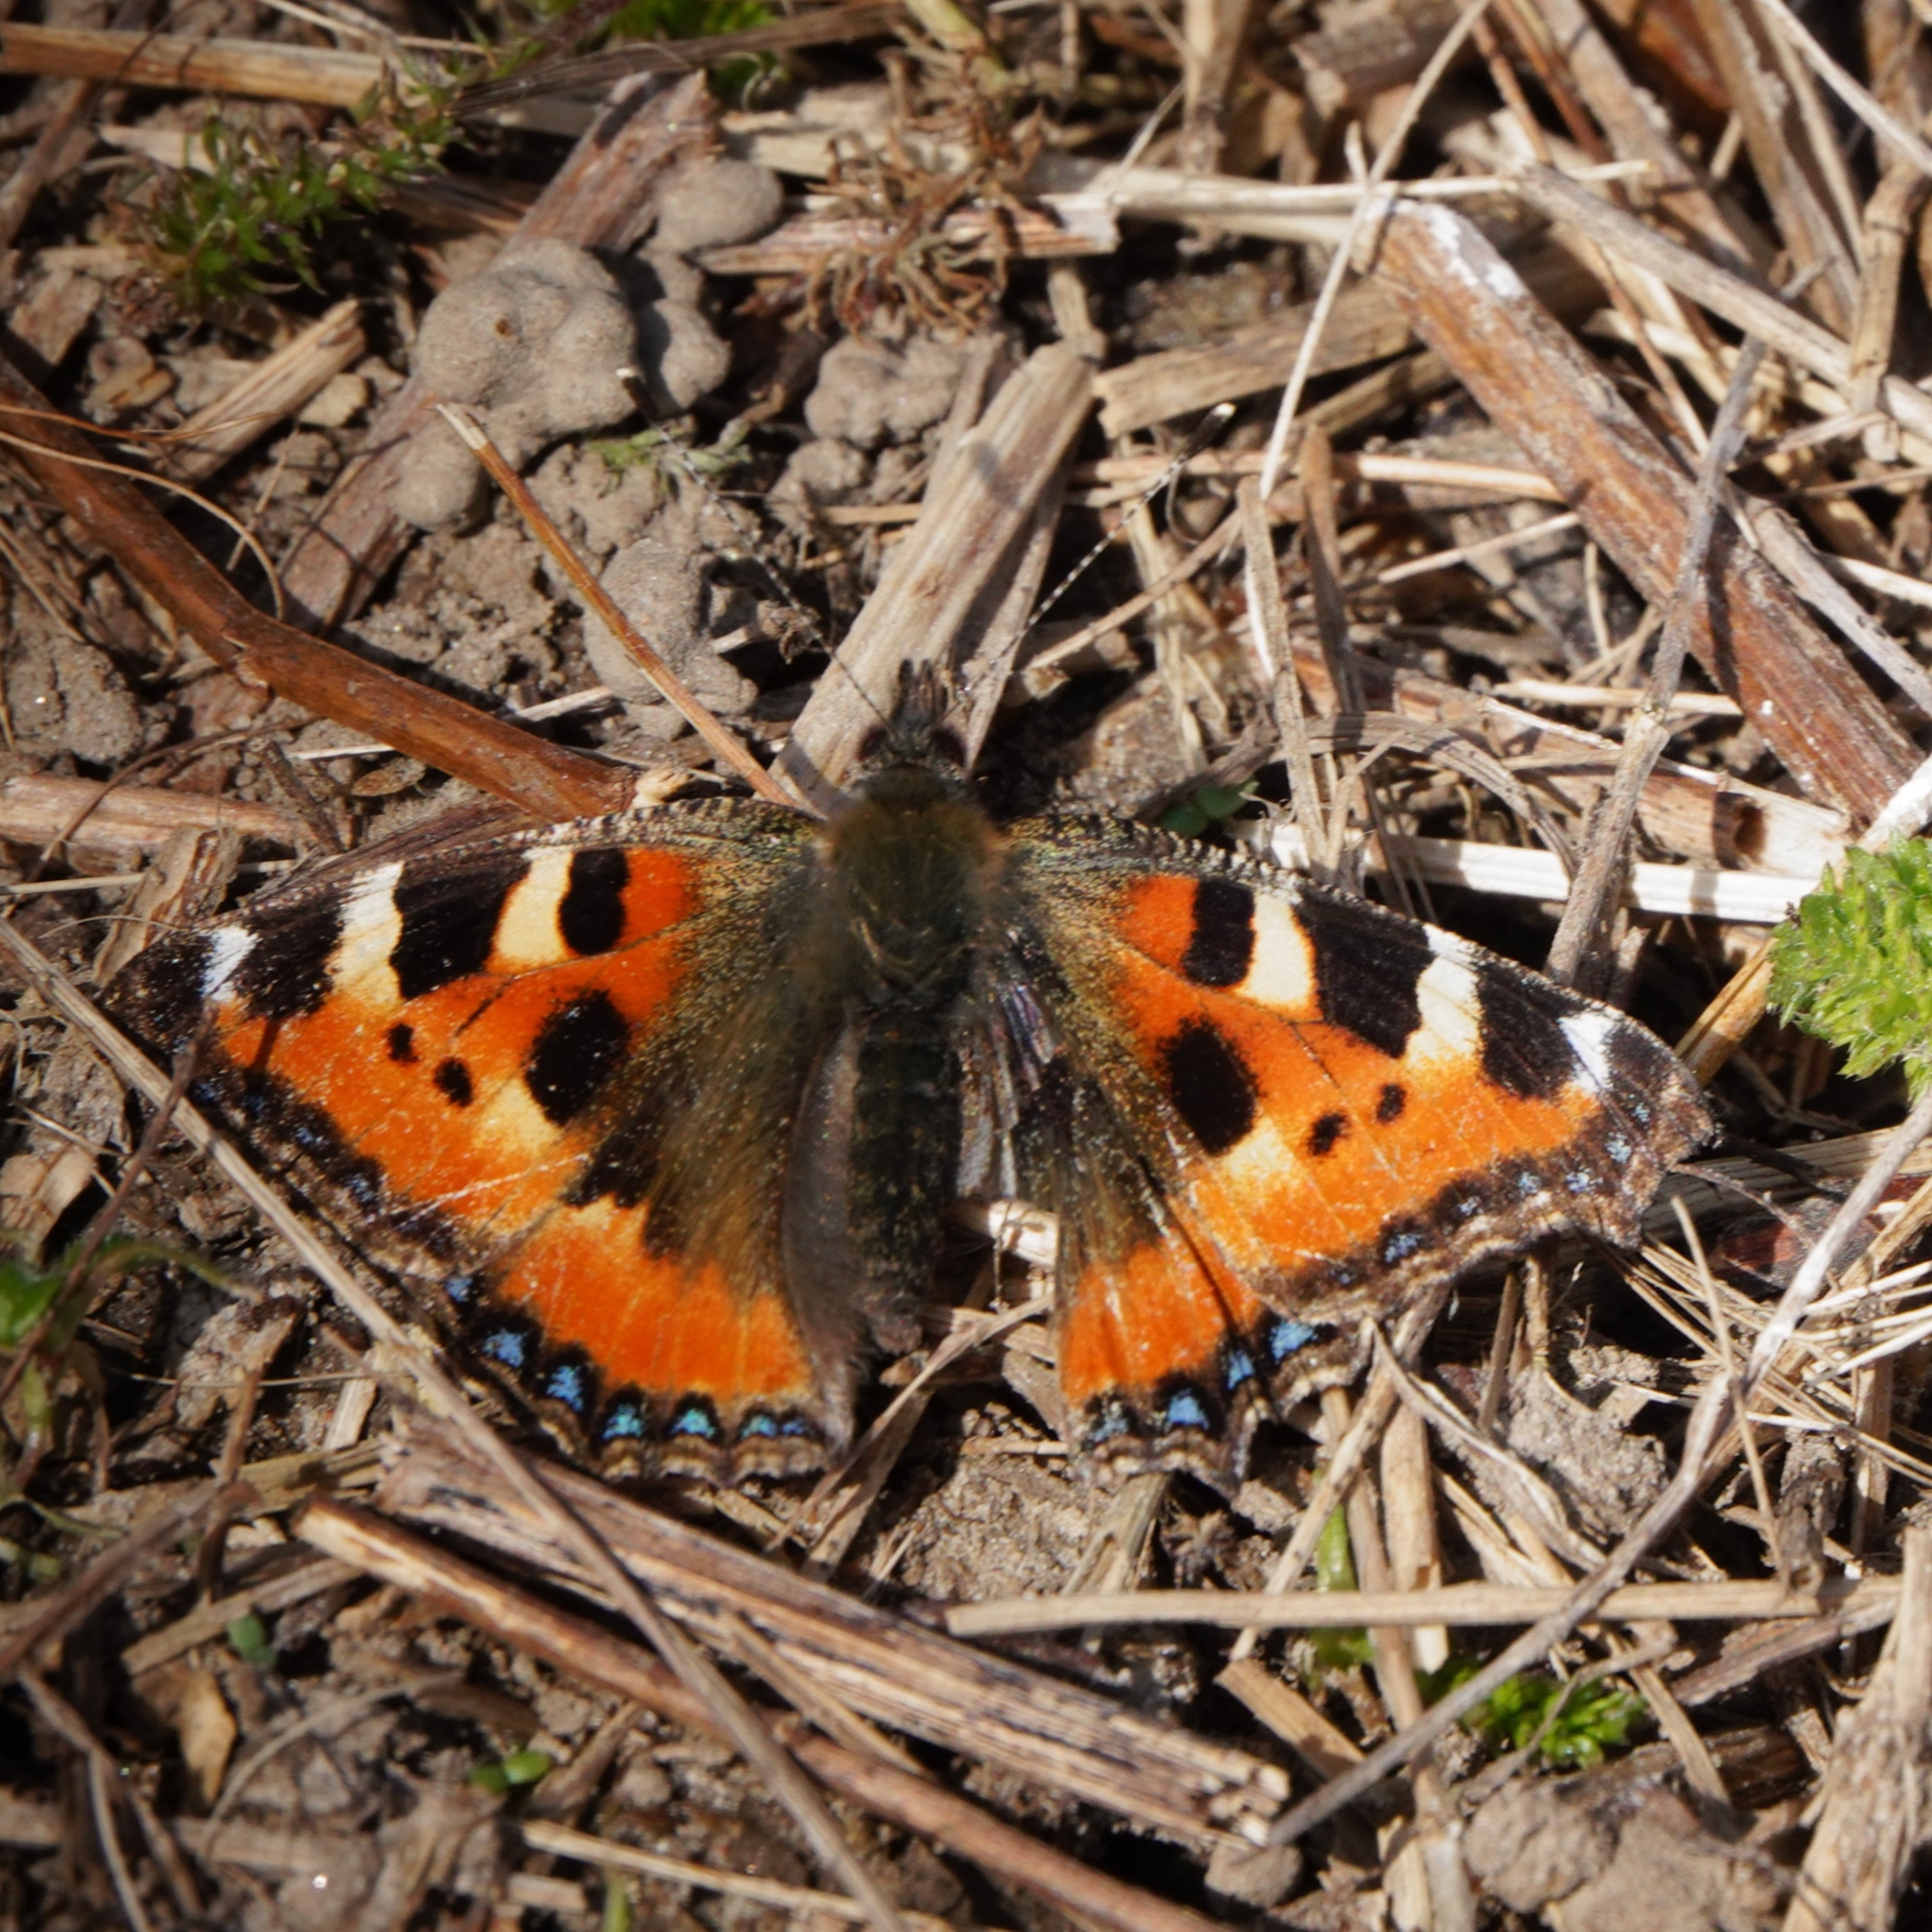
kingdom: Animalia
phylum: Arthropoda
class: Insecta
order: Lepidoptera
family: Nymphalidae
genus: Aglais
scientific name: Aglais urticae
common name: Small tortoiseshell
